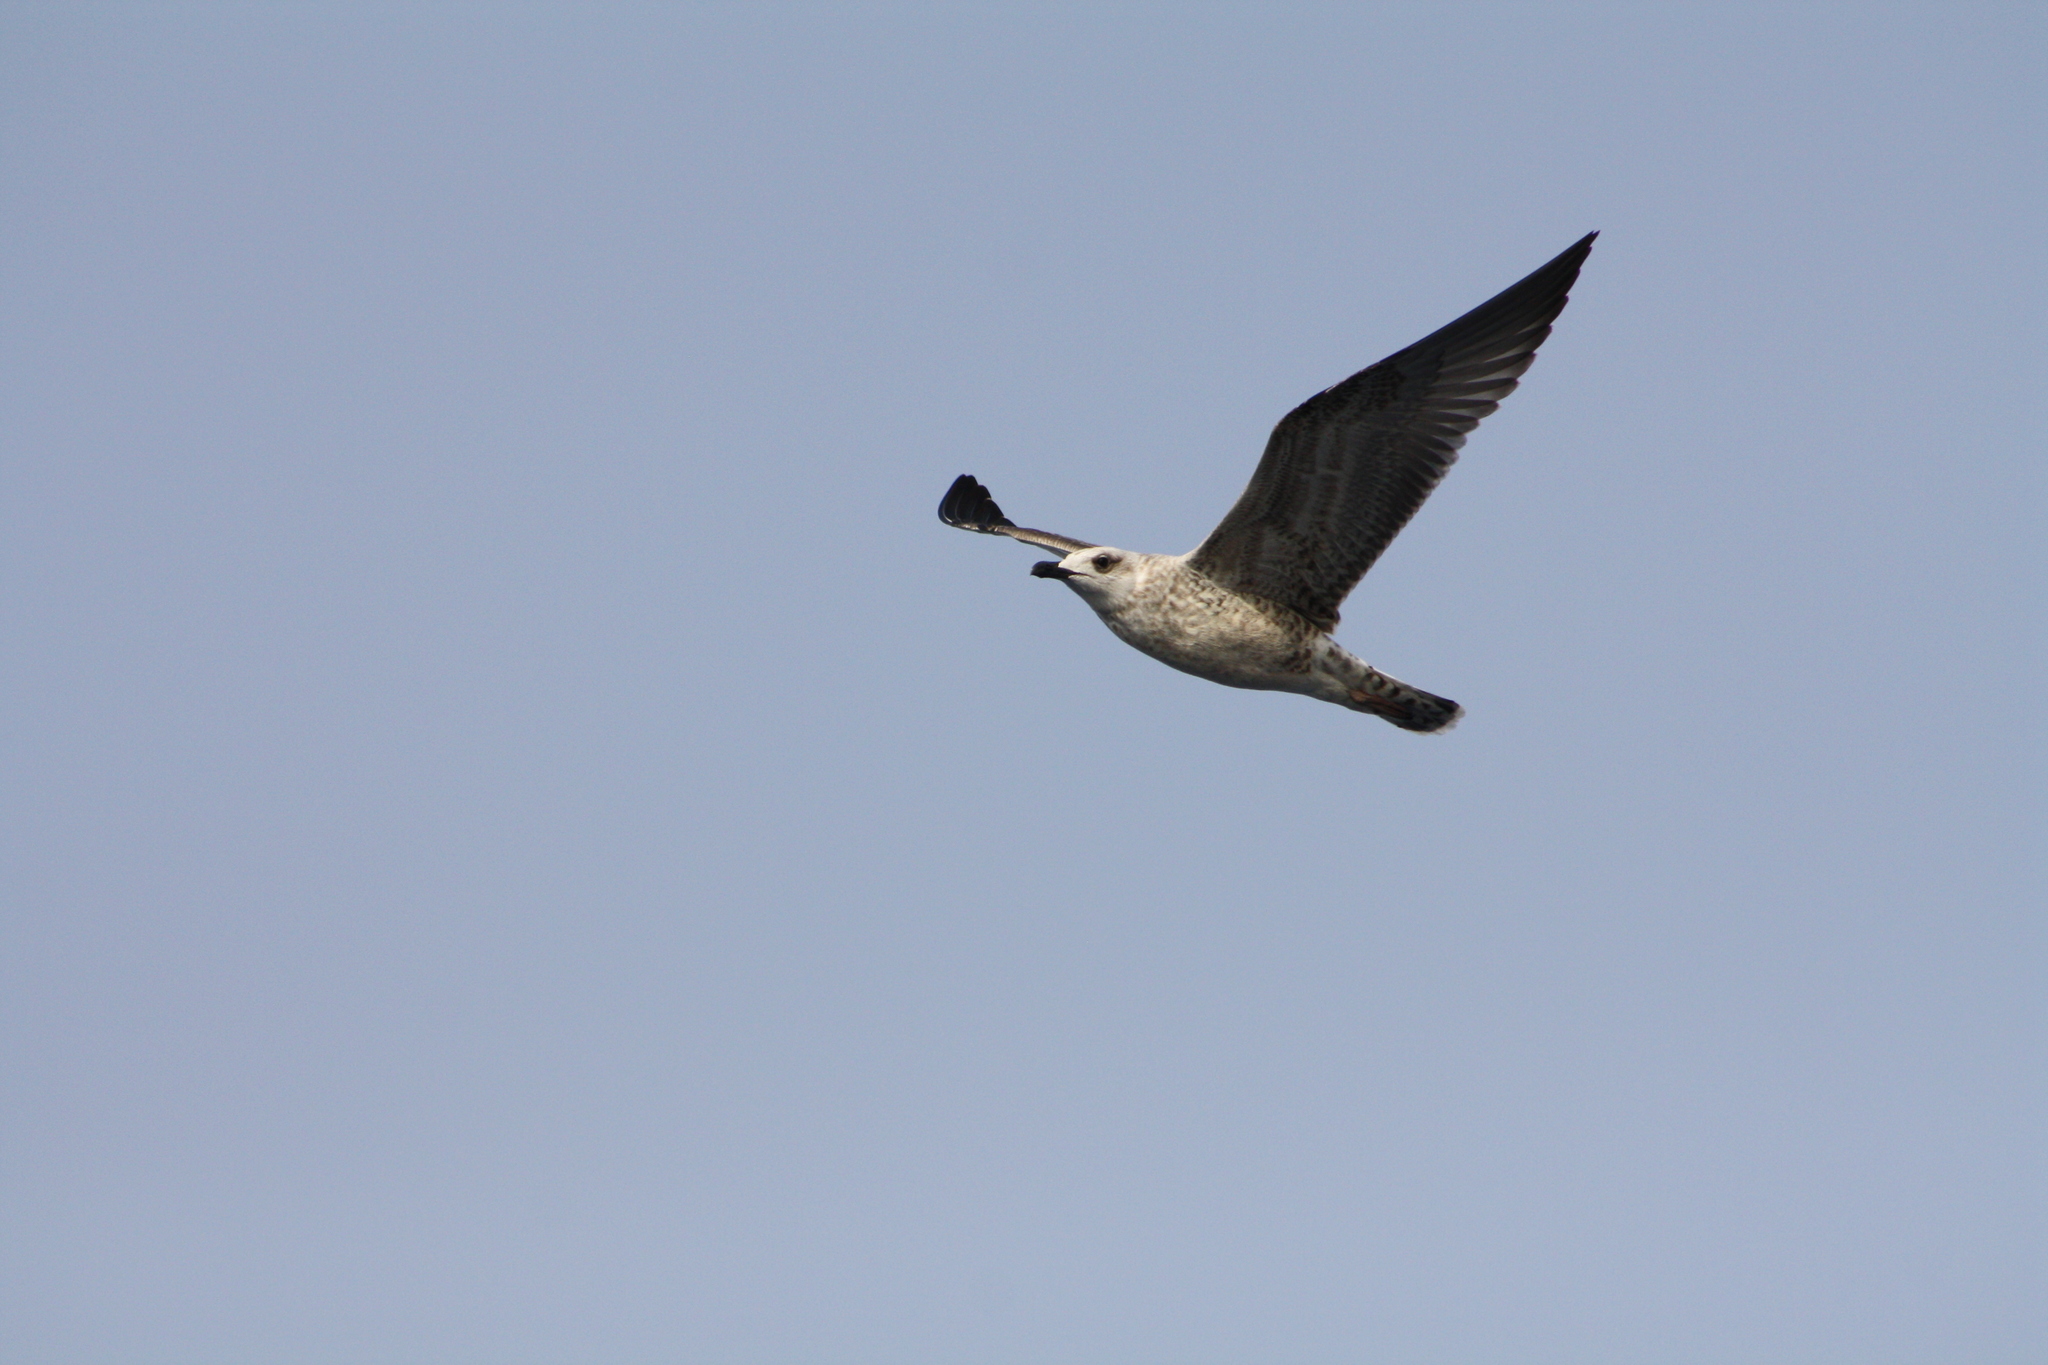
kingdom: Animalia
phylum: Chordata
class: Aves
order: Charadriiformes
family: Laridae
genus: Larus
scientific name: Larus
